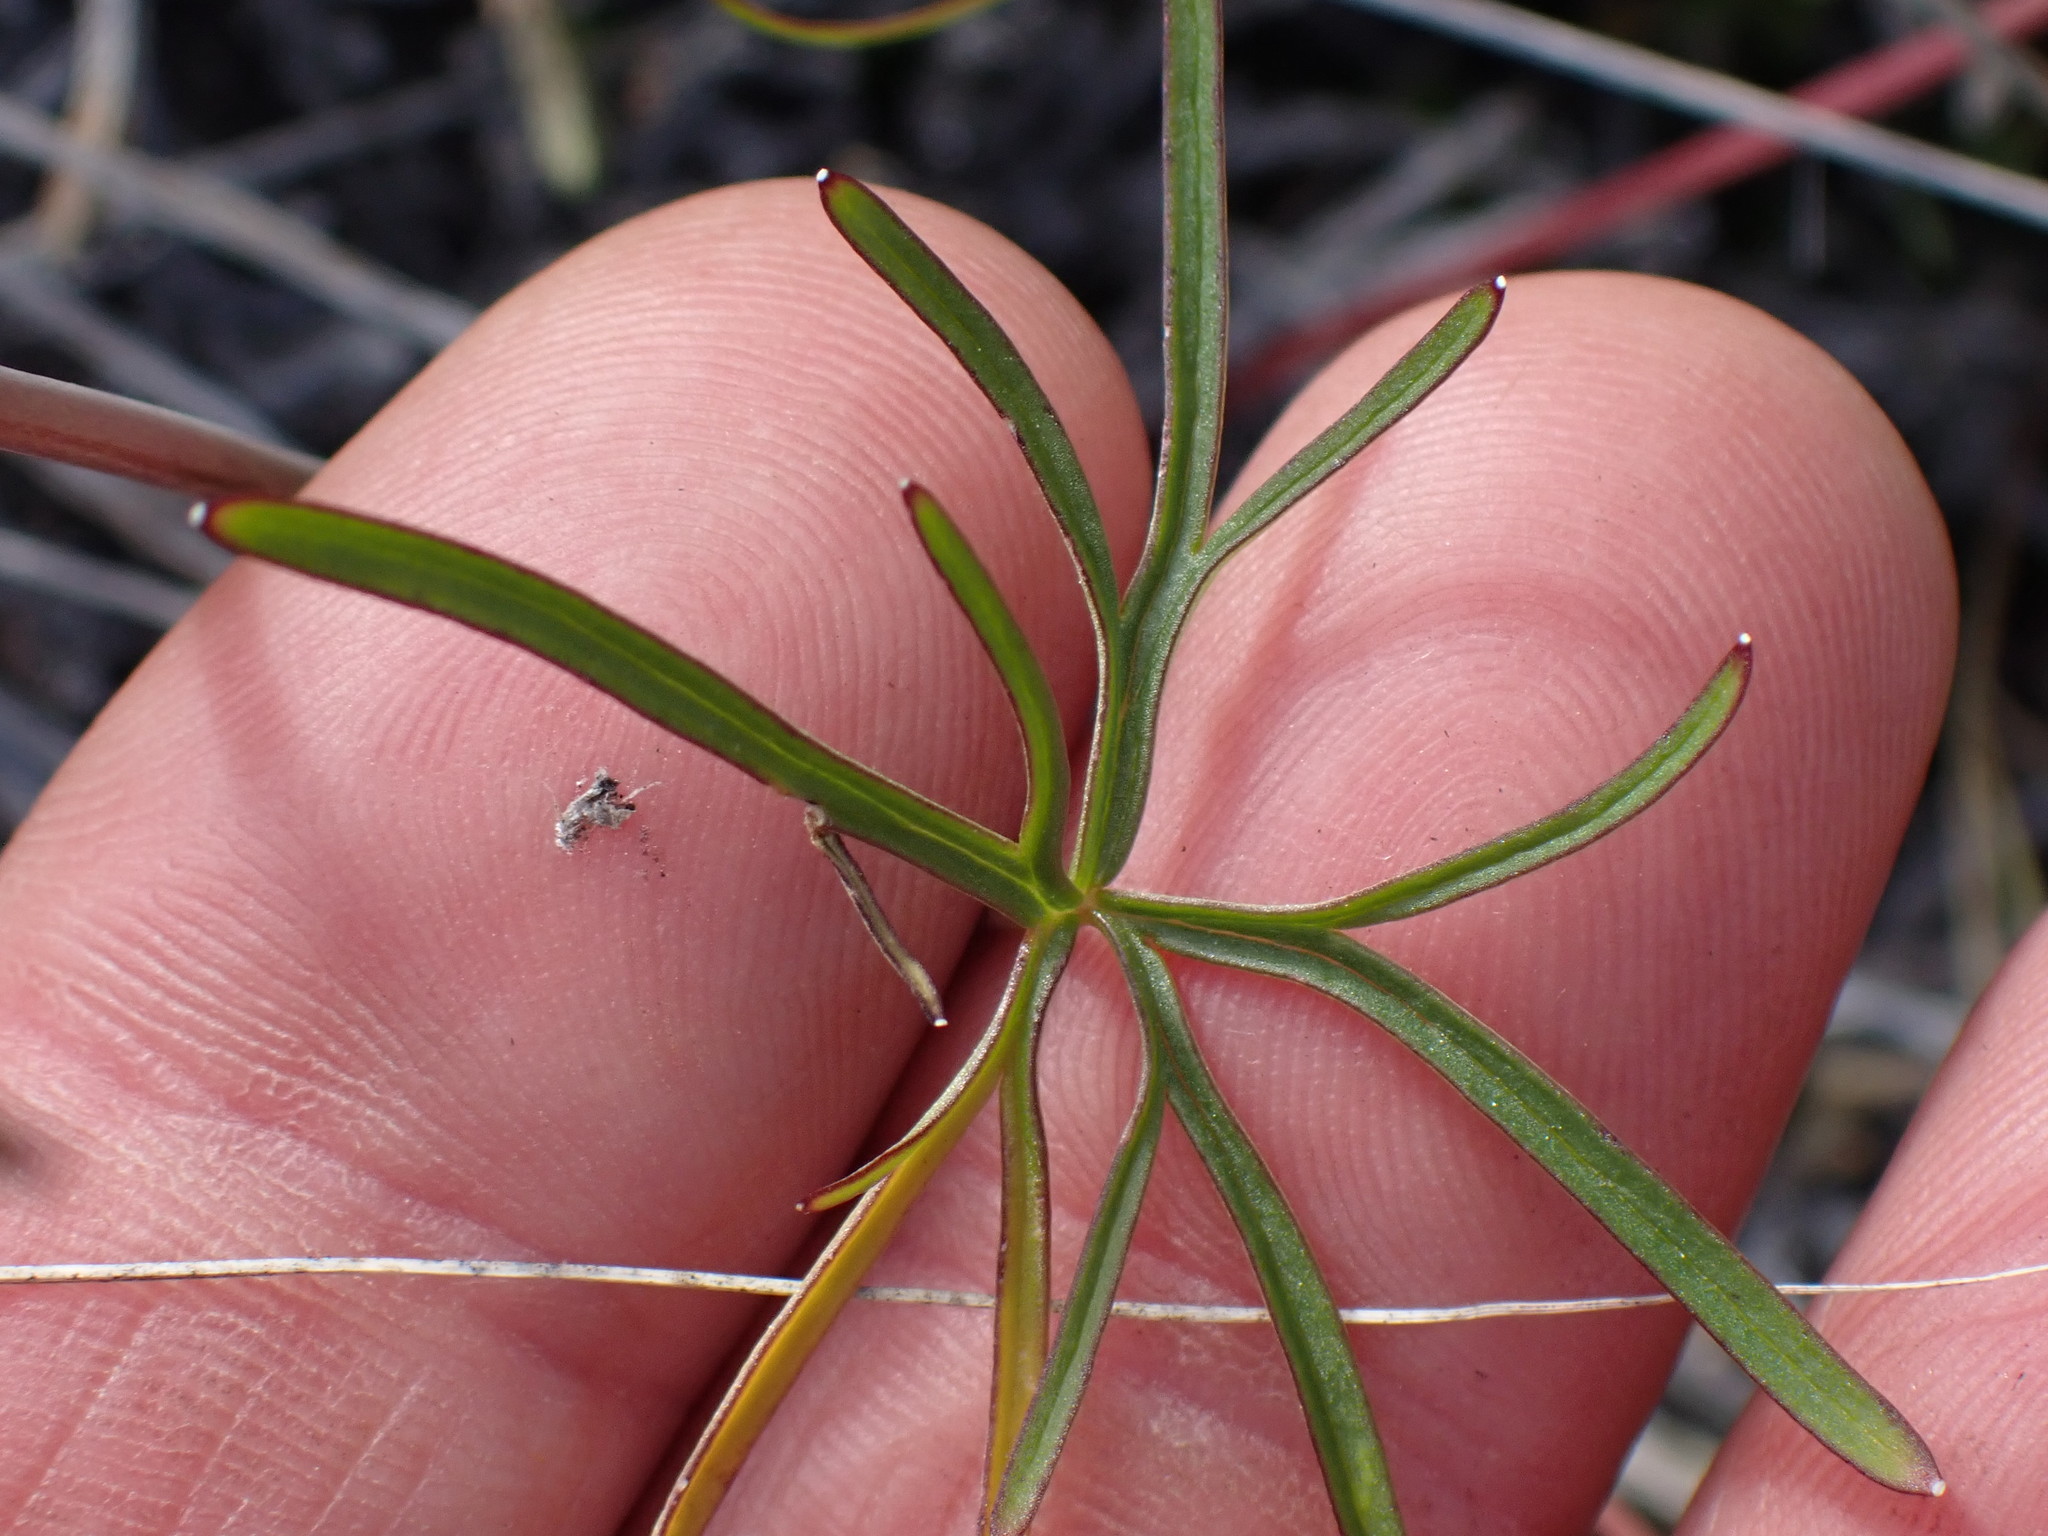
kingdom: Plantae
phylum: Tracheophyta
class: Magnoliopsida
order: Ranunculales
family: Ranunculaceae
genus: Delphinium
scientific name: Delphinium nuttallianum
